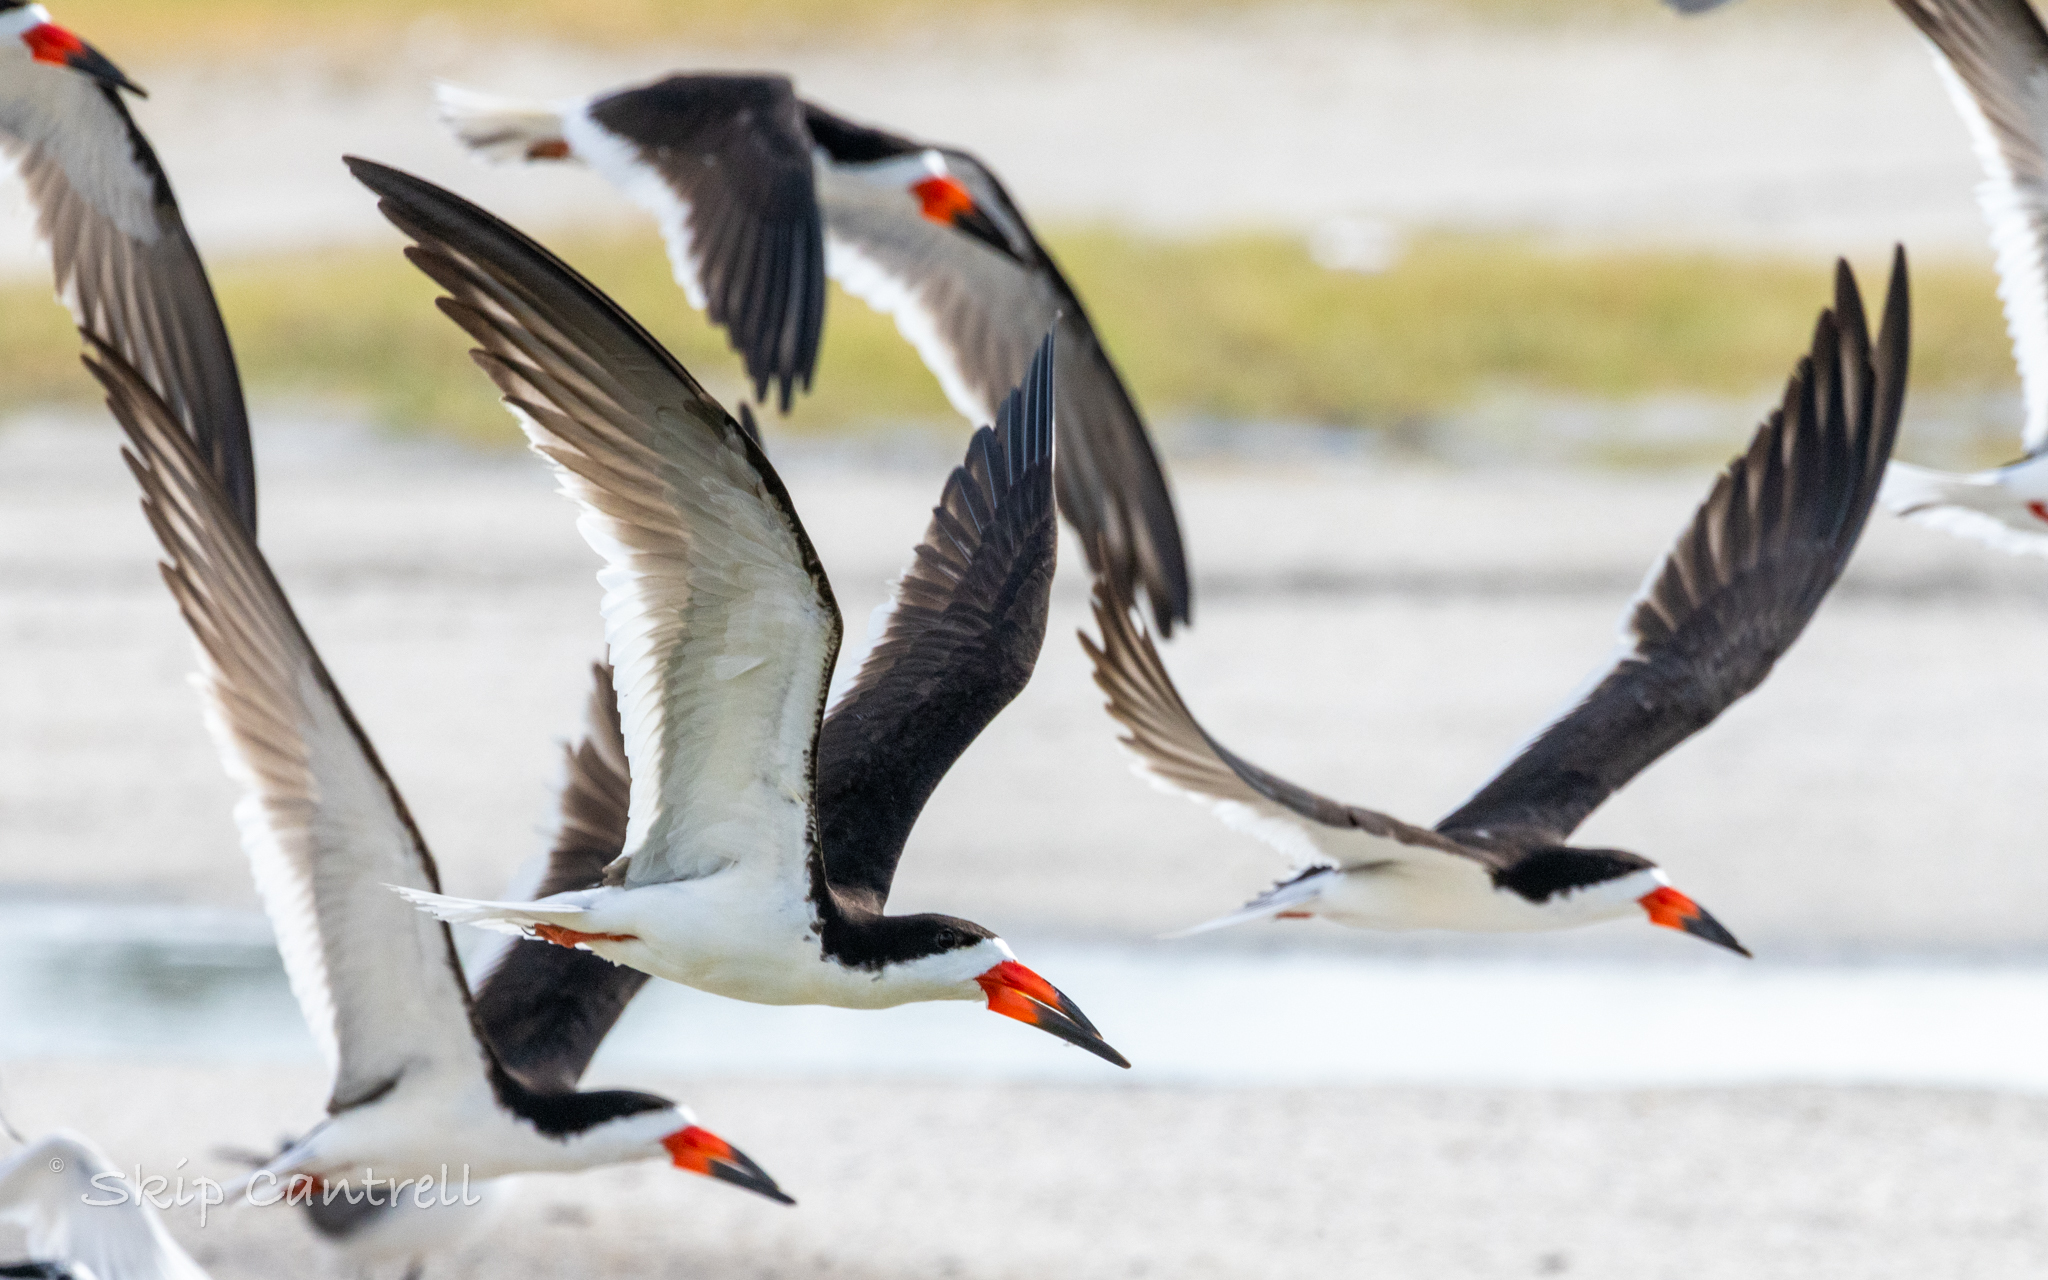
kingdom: Animalia
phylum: Chordata
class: Aves
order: Charadriiformes
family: Laridae
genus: Rynchops
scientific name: Rynchops niger
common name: Black skimmer
